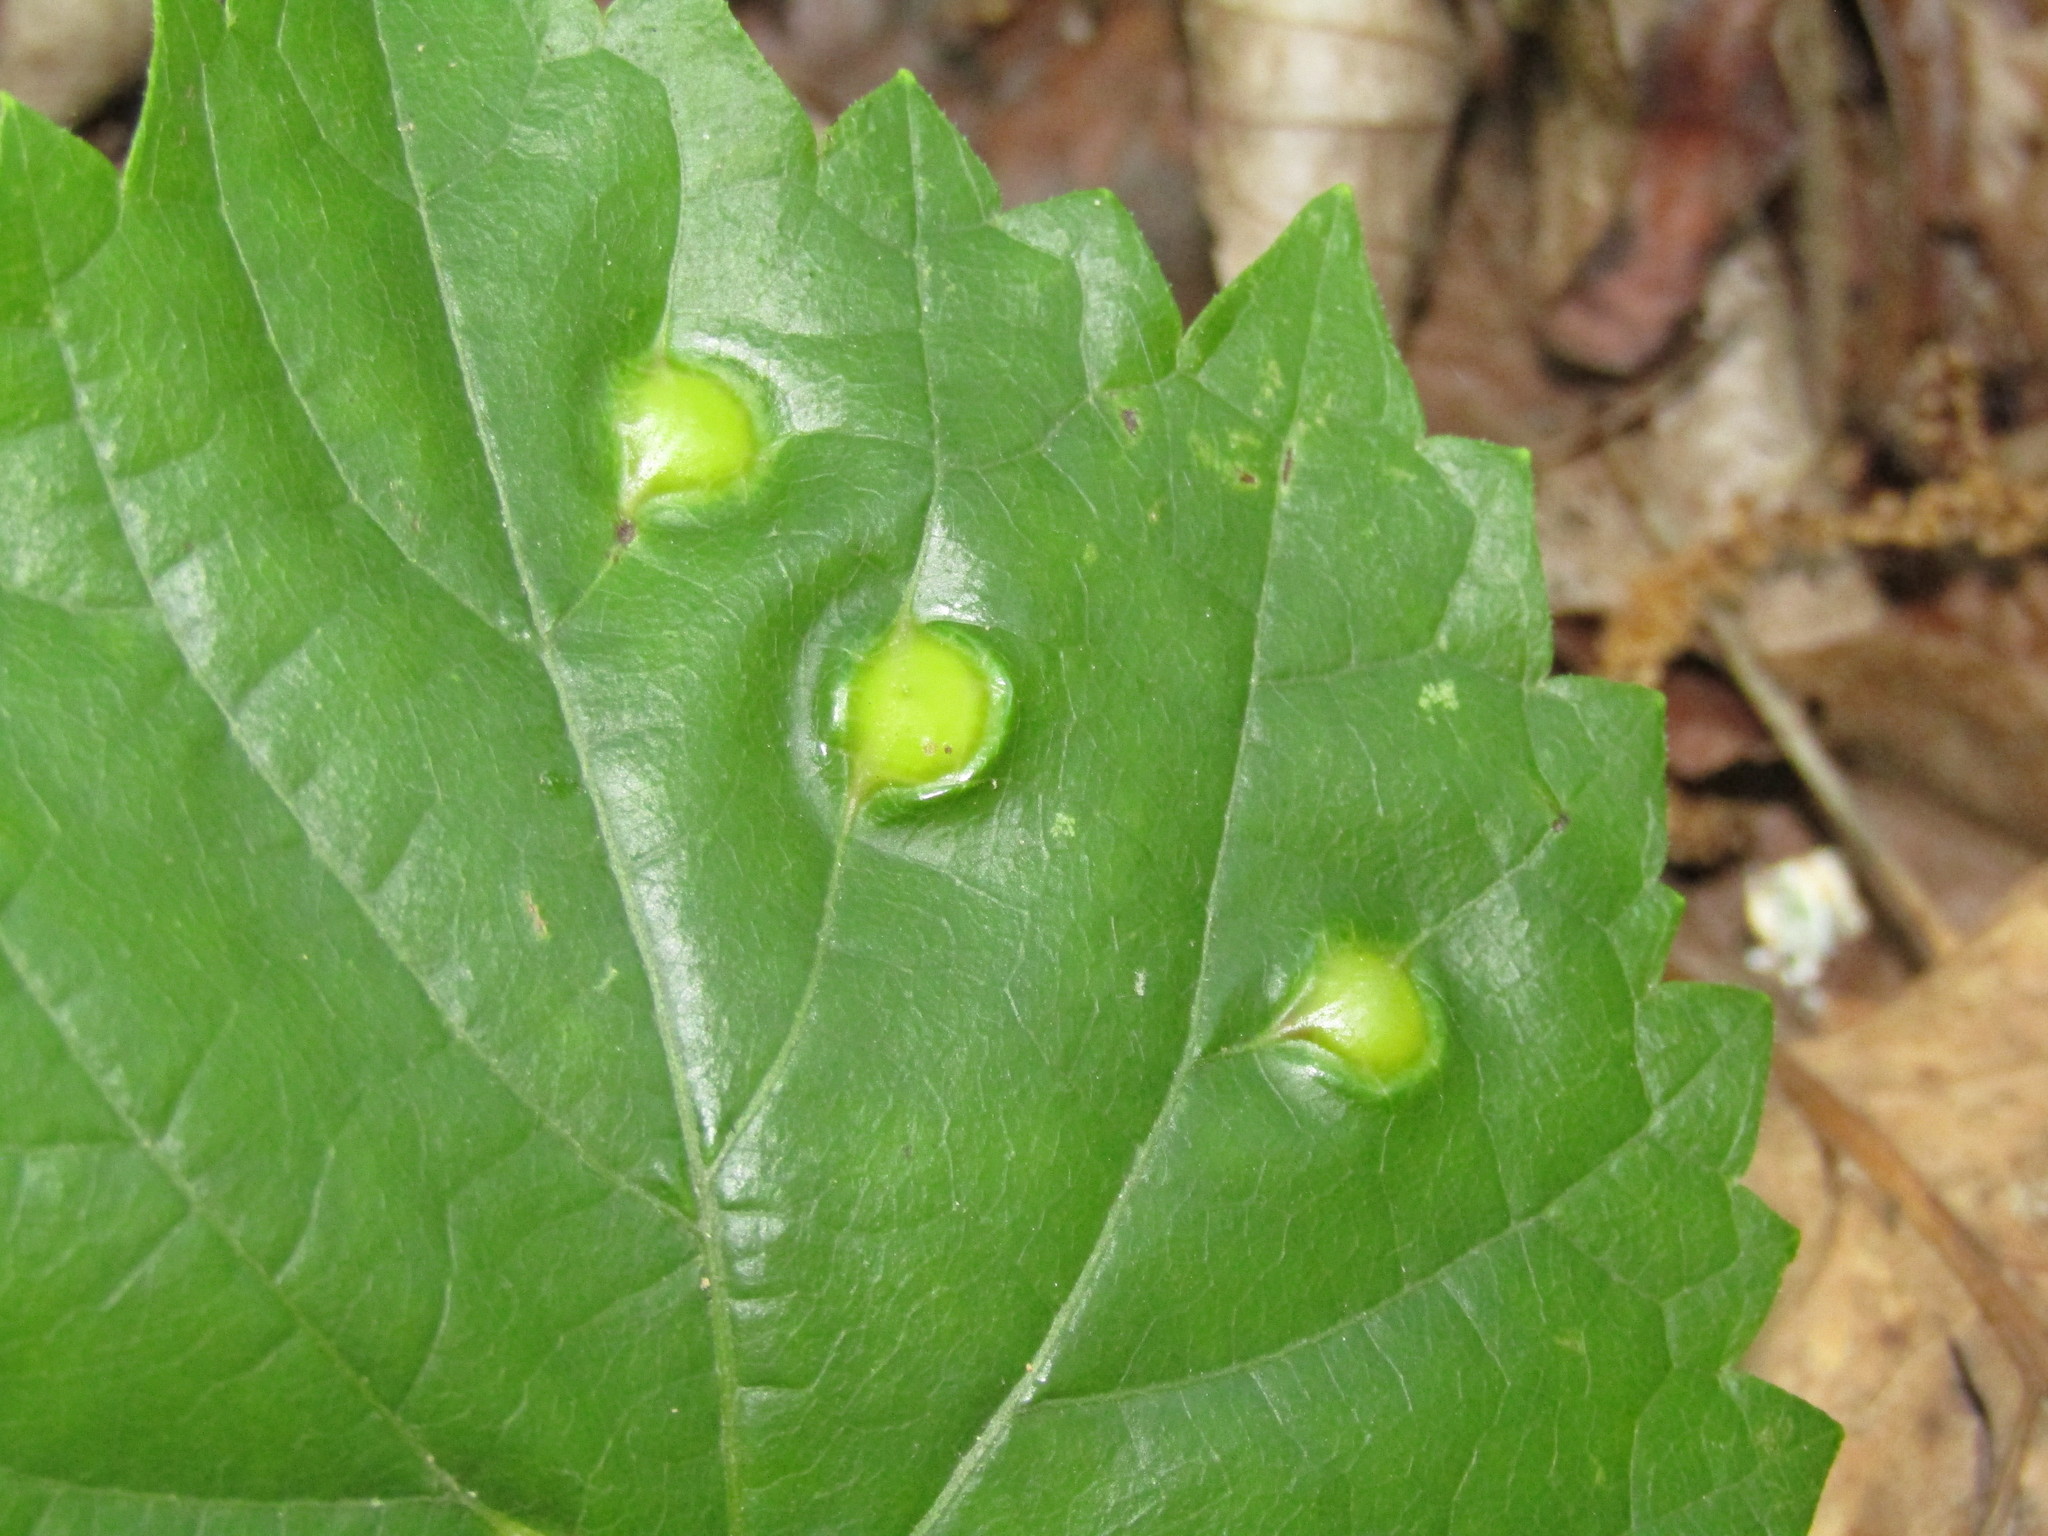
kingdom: Animalia
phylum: Arthropoda
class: Insecta
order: Diptera
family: Cecidomyiidae
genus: Vitisiella
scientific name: Vitisiella brevicauda
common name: Grape tumid gallmaker midge
